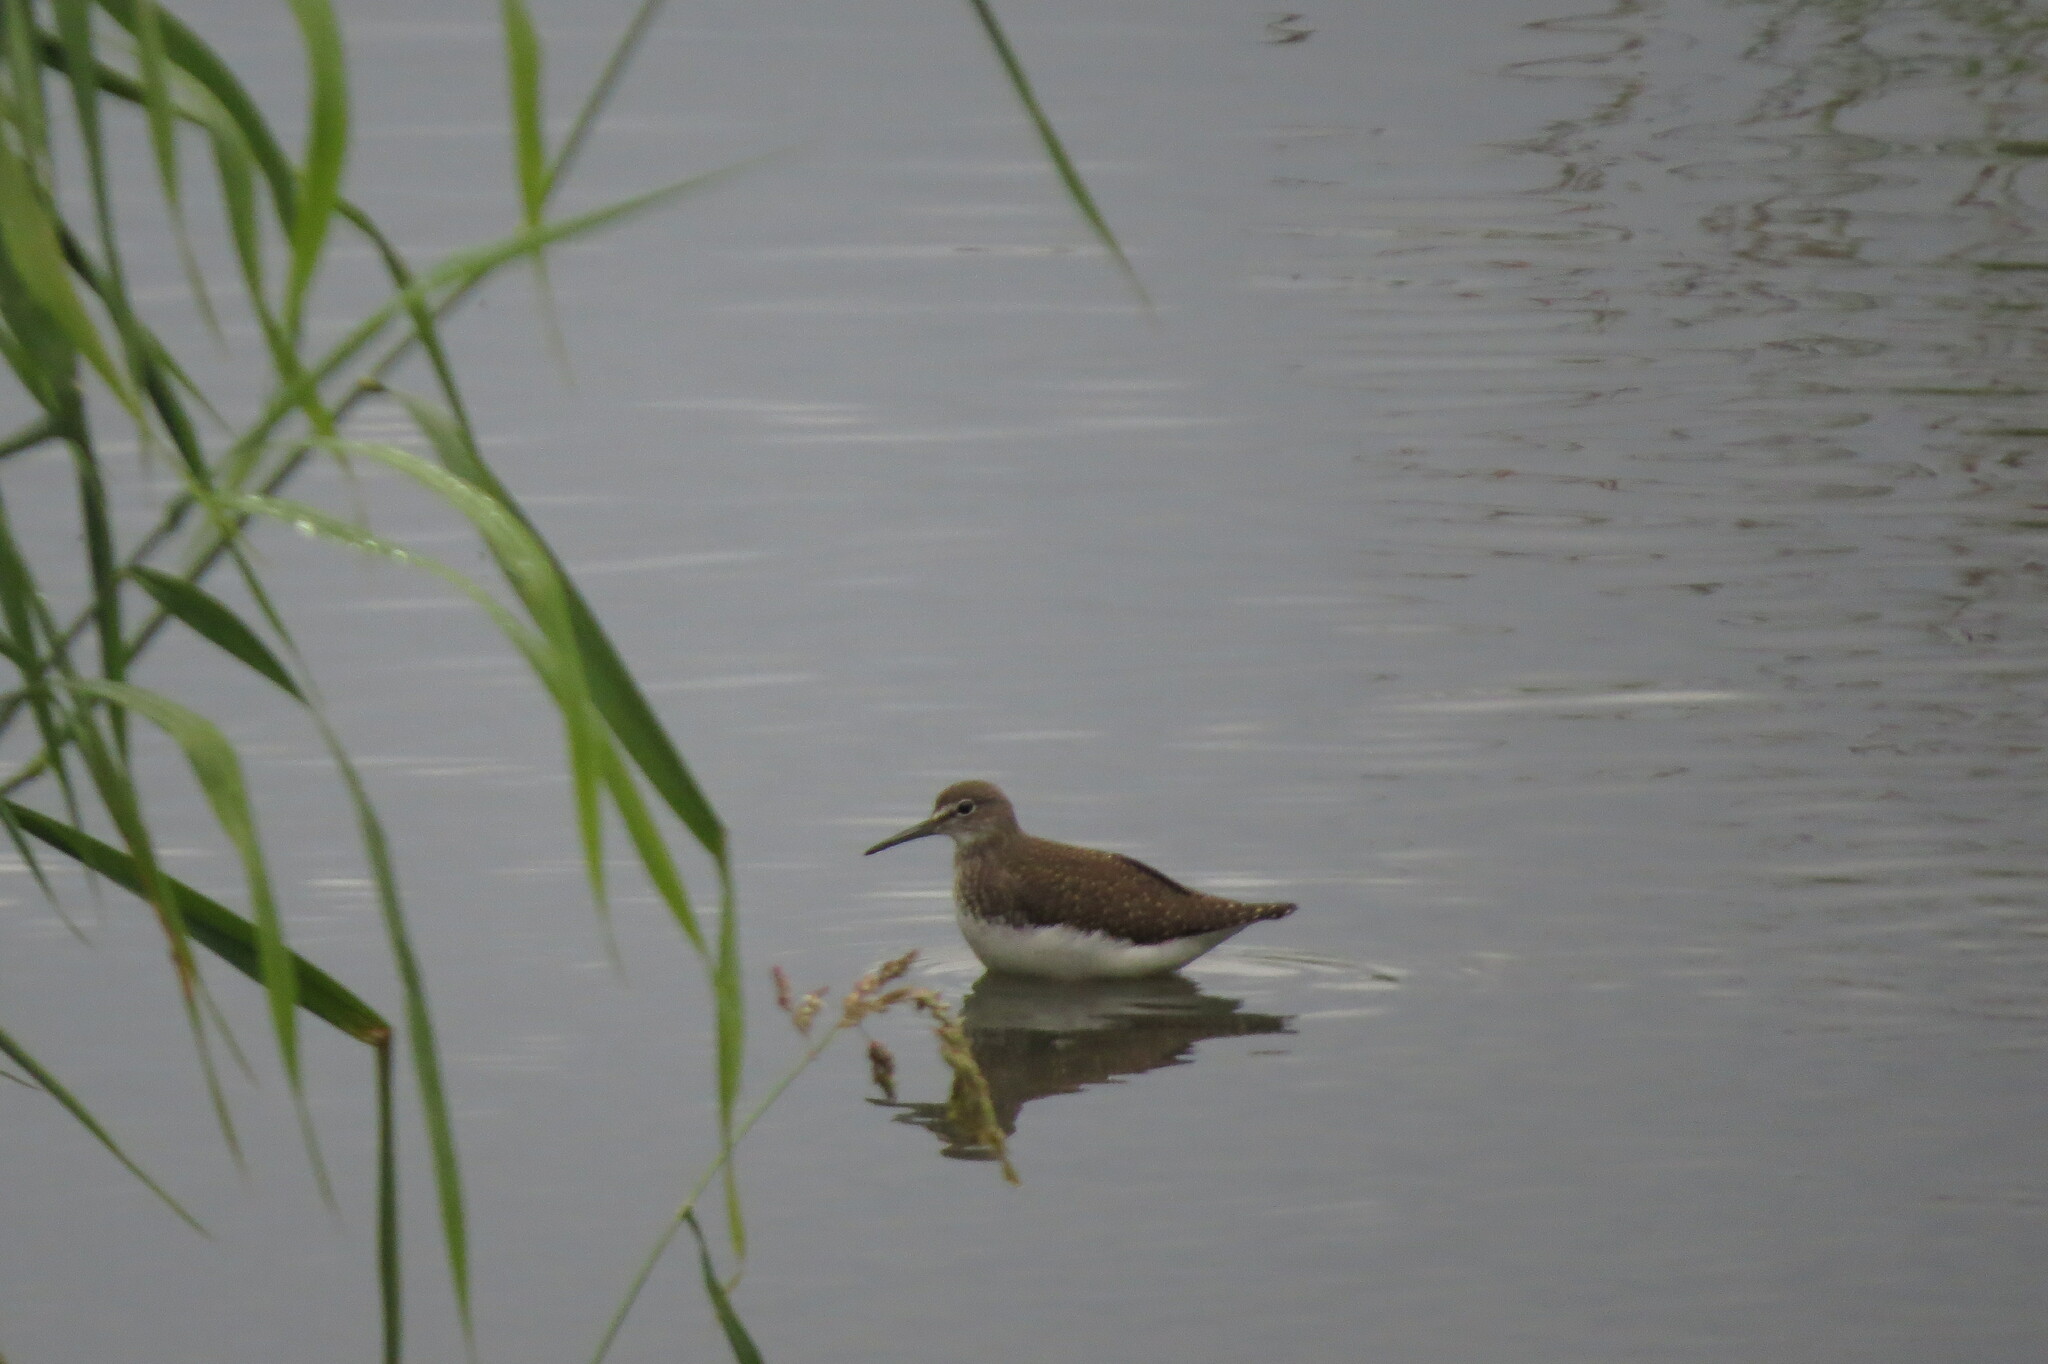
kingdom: Animalia
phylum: Chordata
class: Aves
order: Charadriiformes
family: Scolopacidae
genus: Tringa
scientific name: Tringa ochropus
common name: Green sandpiper
